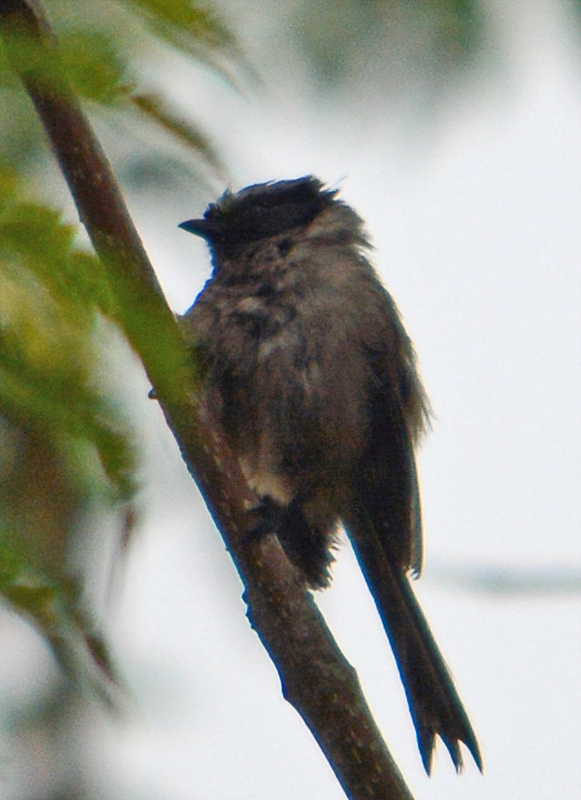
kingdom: Animalia
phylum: Chordata
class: Aves
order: Passeriformes
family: Aegithalidae
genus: Psaltriparus
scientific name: Psaltriparus minimus
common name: American bushtit
